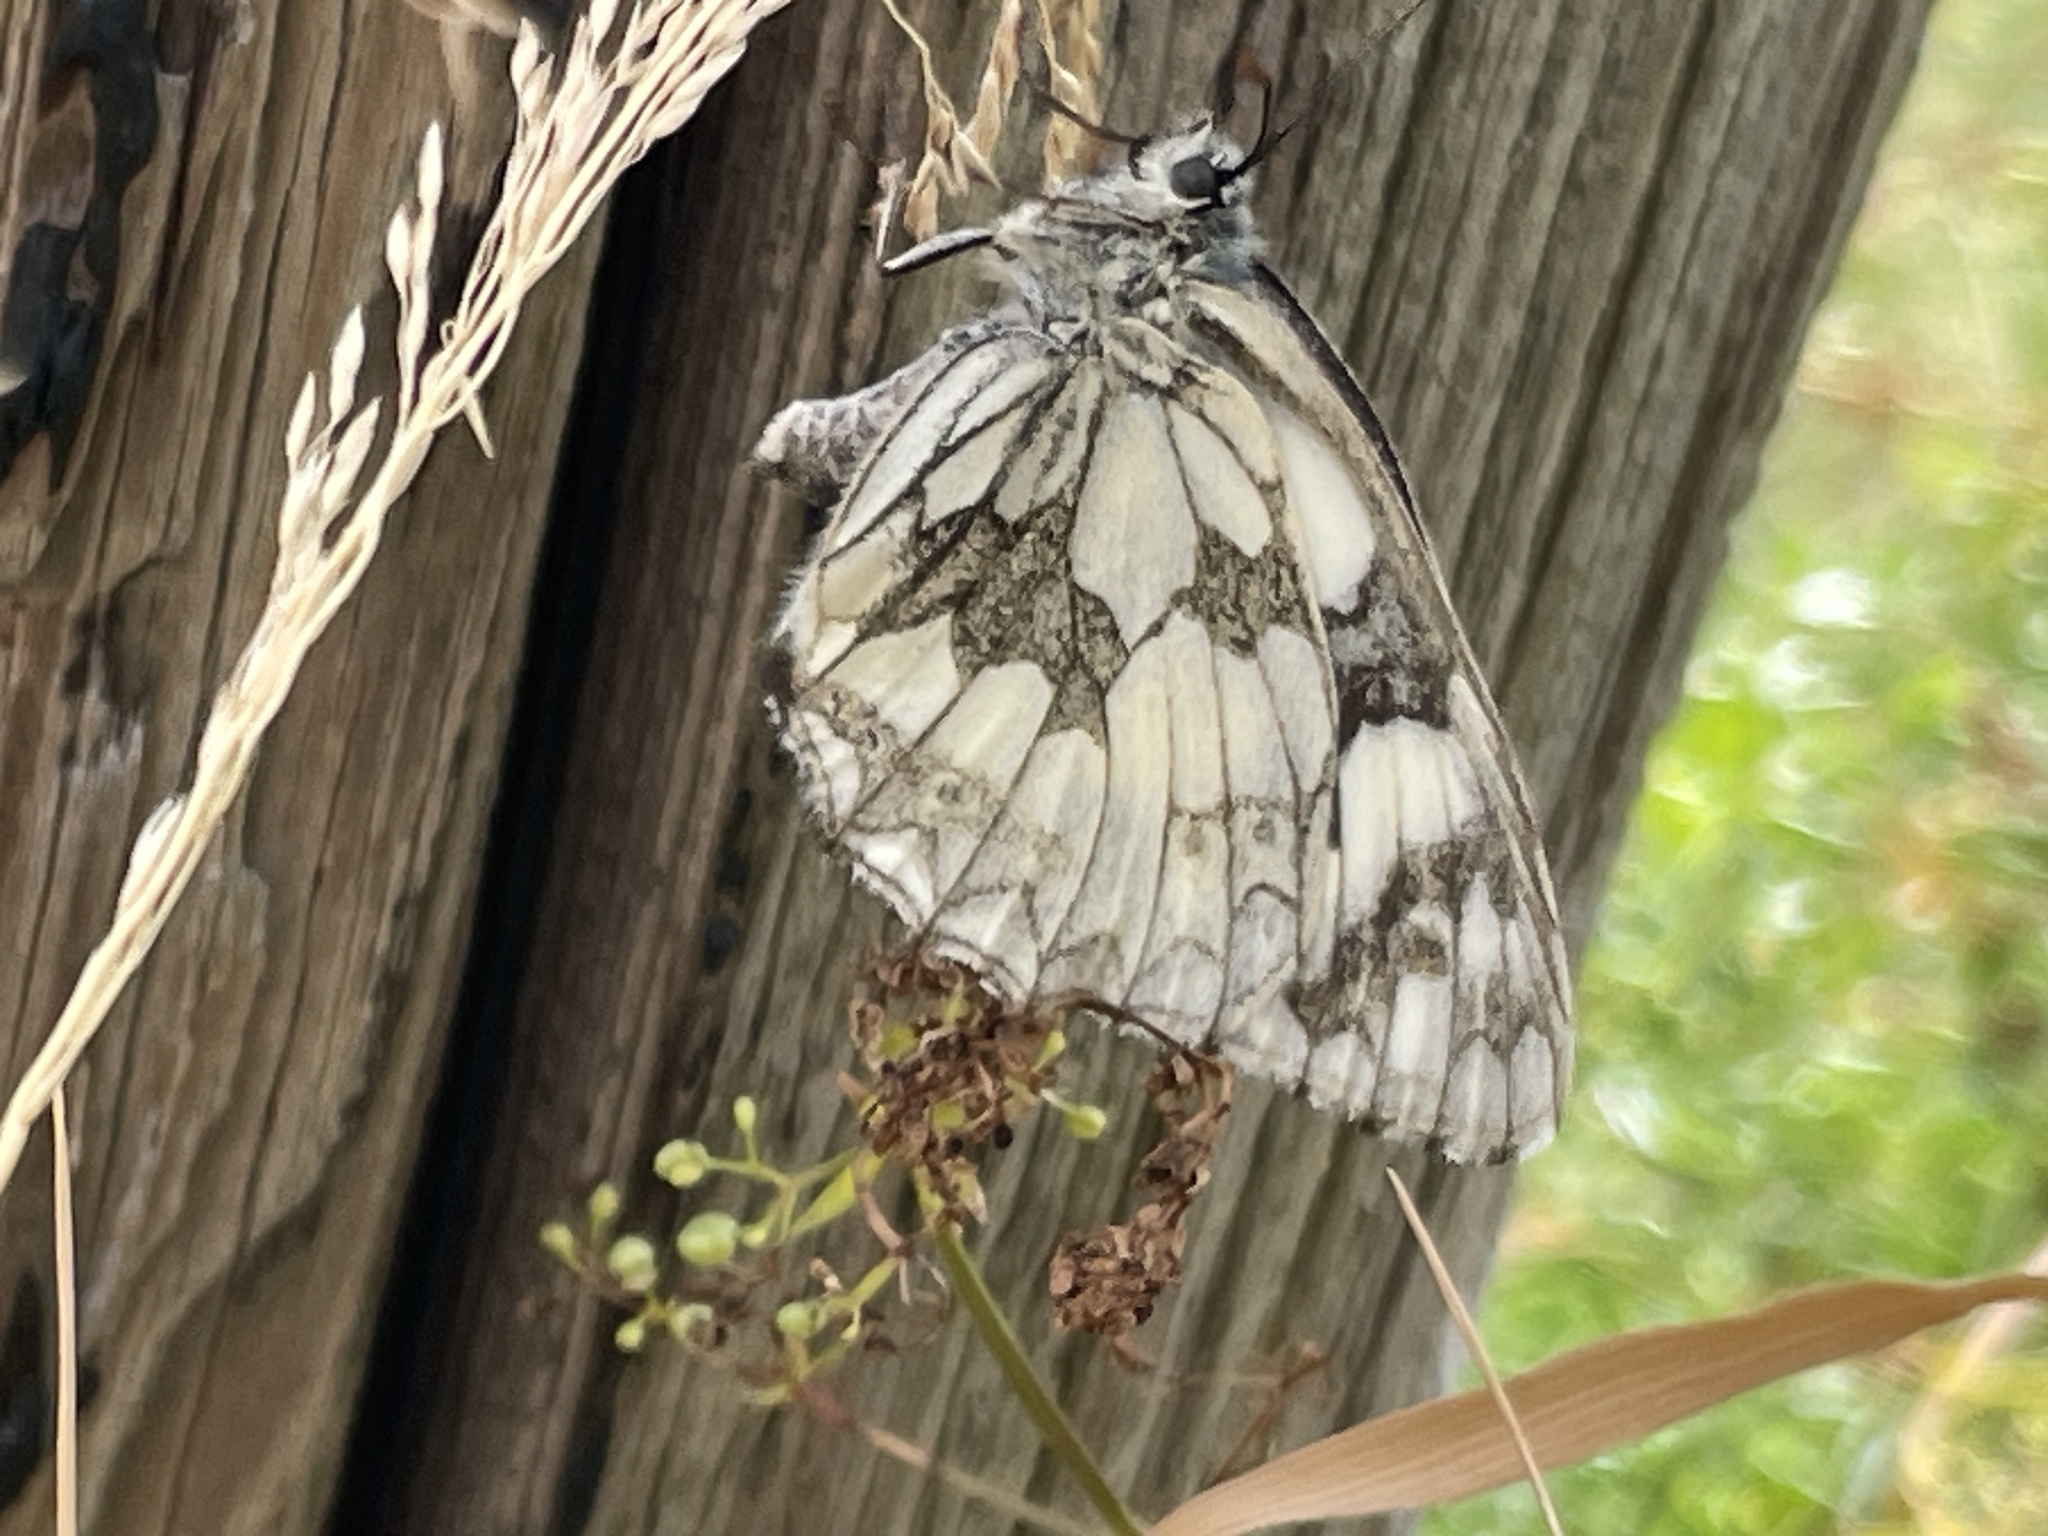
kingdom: Animalia
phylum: Arthropoda
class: Insecta
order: Lepidoptera
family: Nymphalidae
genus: Melanargia
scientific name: Melanargia galathea
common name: Marbled white
